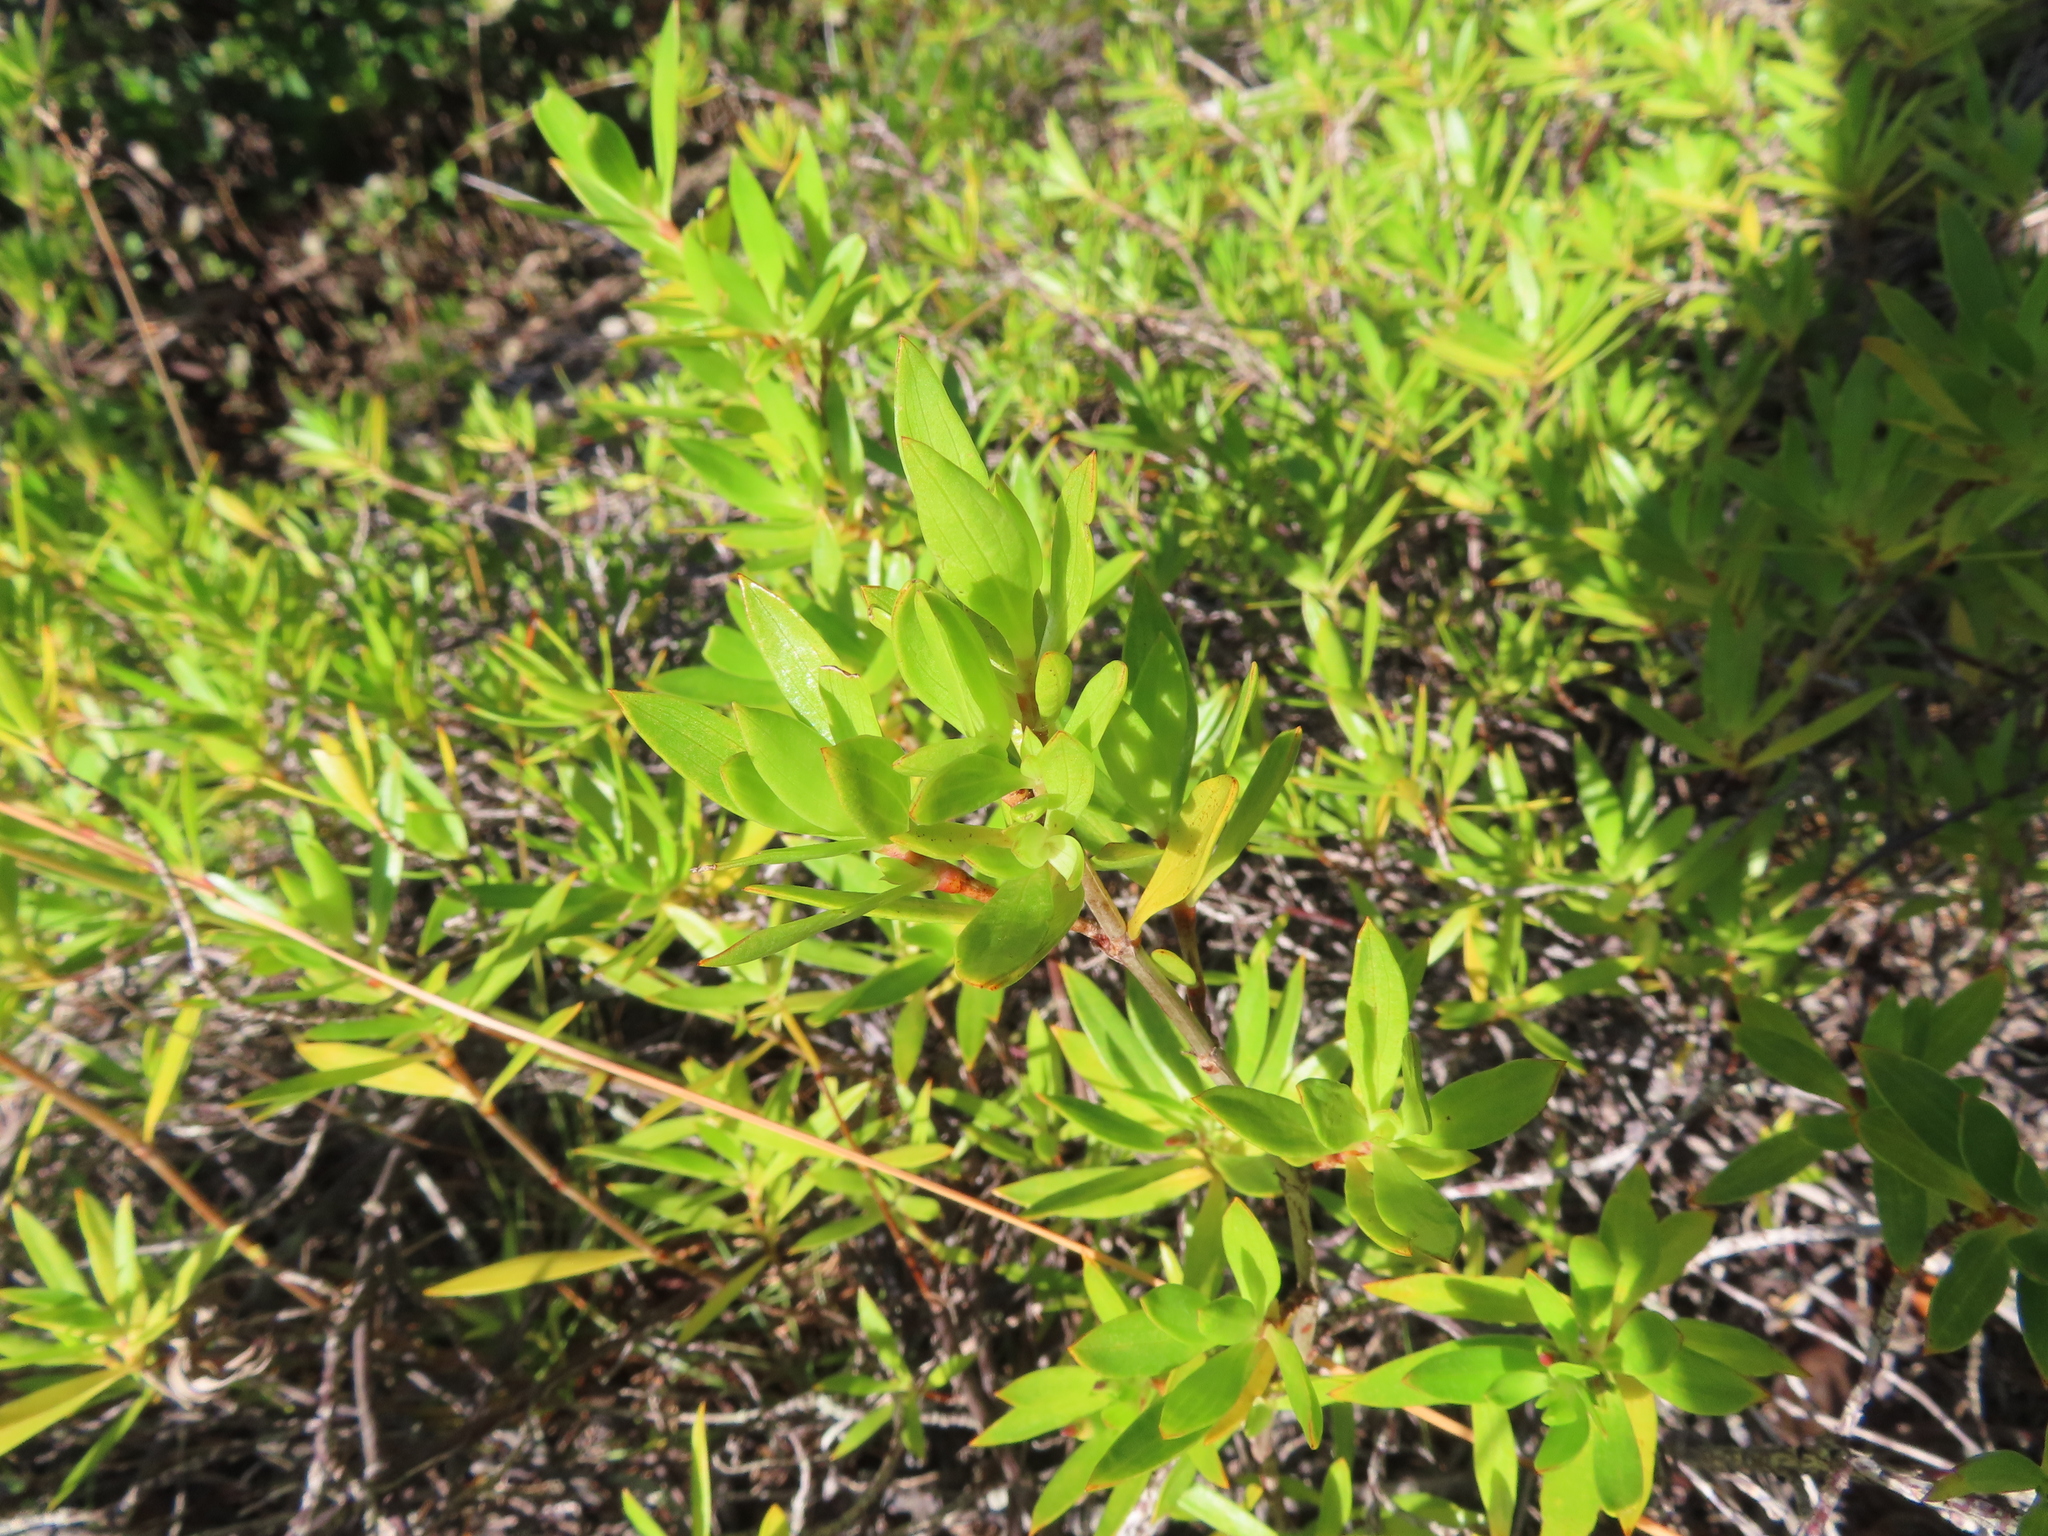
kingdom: Plantae
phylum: Tracheophyta
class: Magnoliopsida
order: Gentianales
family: Rubiaceae
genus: Ernodea
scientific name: Ernodea littoralis
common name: Beach creeper
